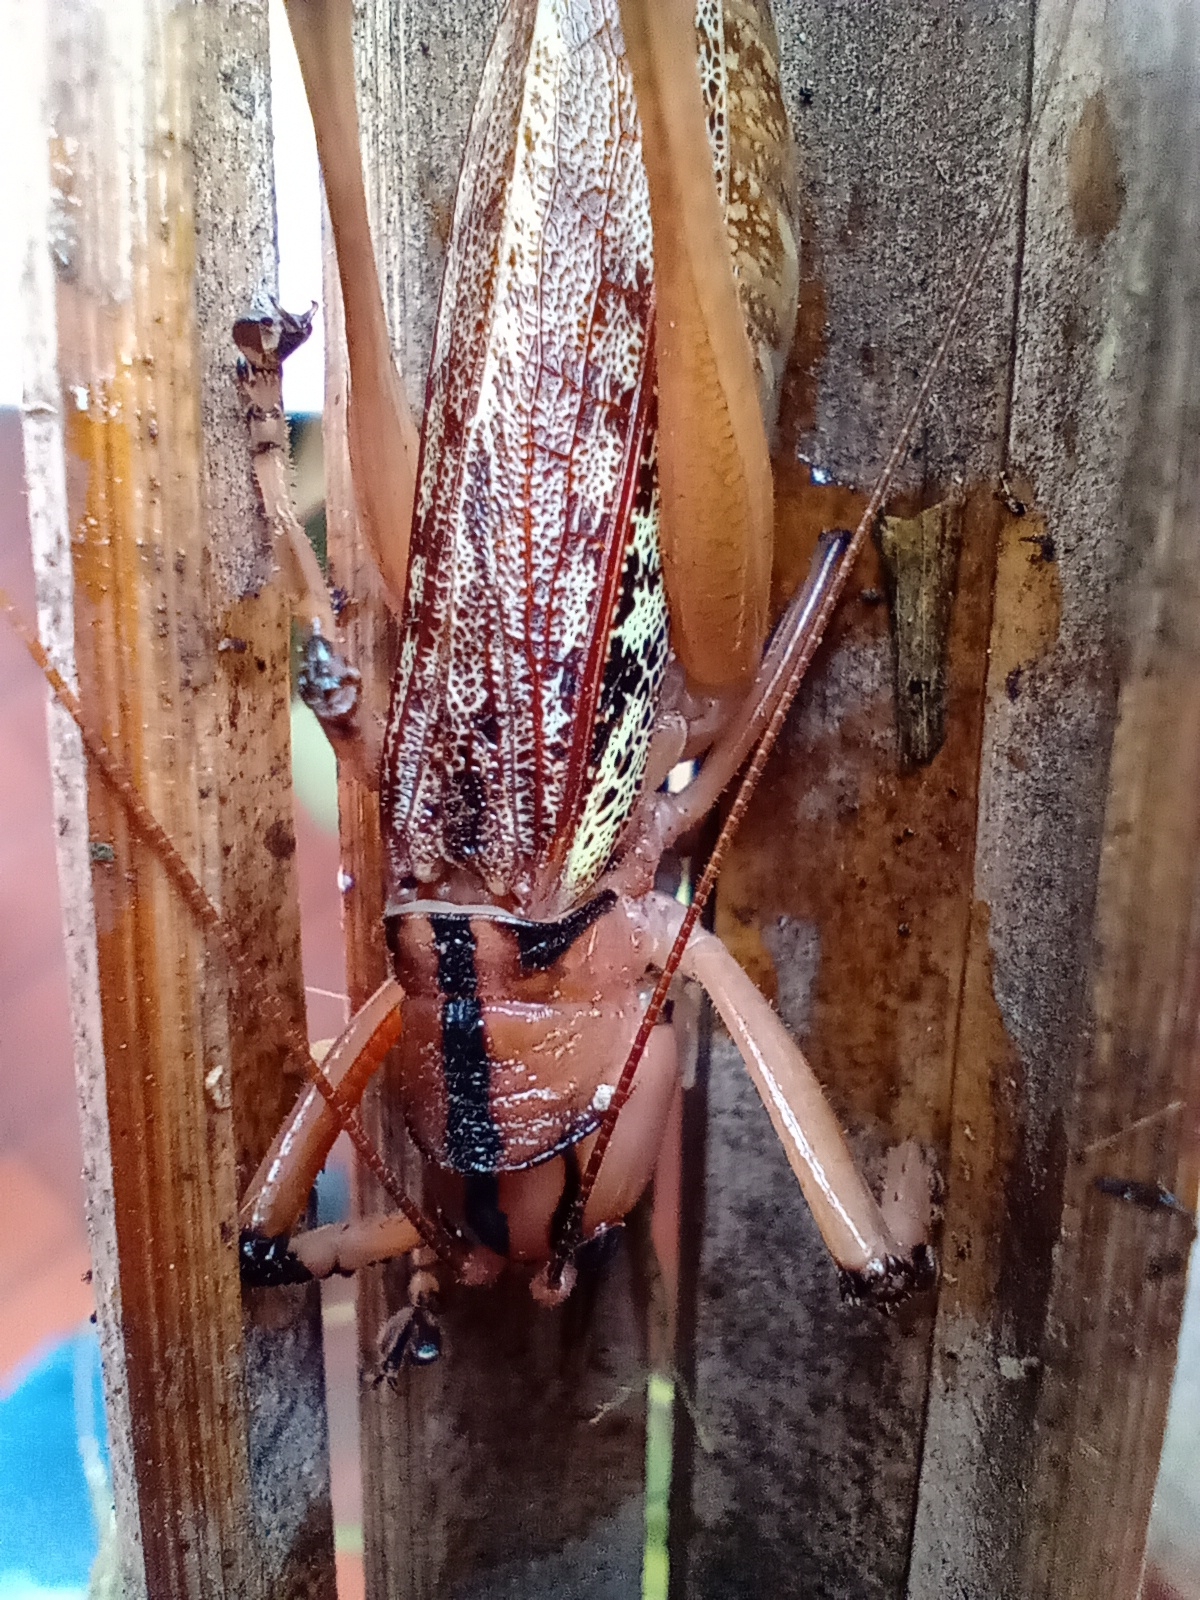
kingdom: Animalia
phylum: Arthropoda
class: Insecta
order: Orthoptera
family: Tettigoniidae
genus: Nastonotus
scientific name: Nastonotus foreli
